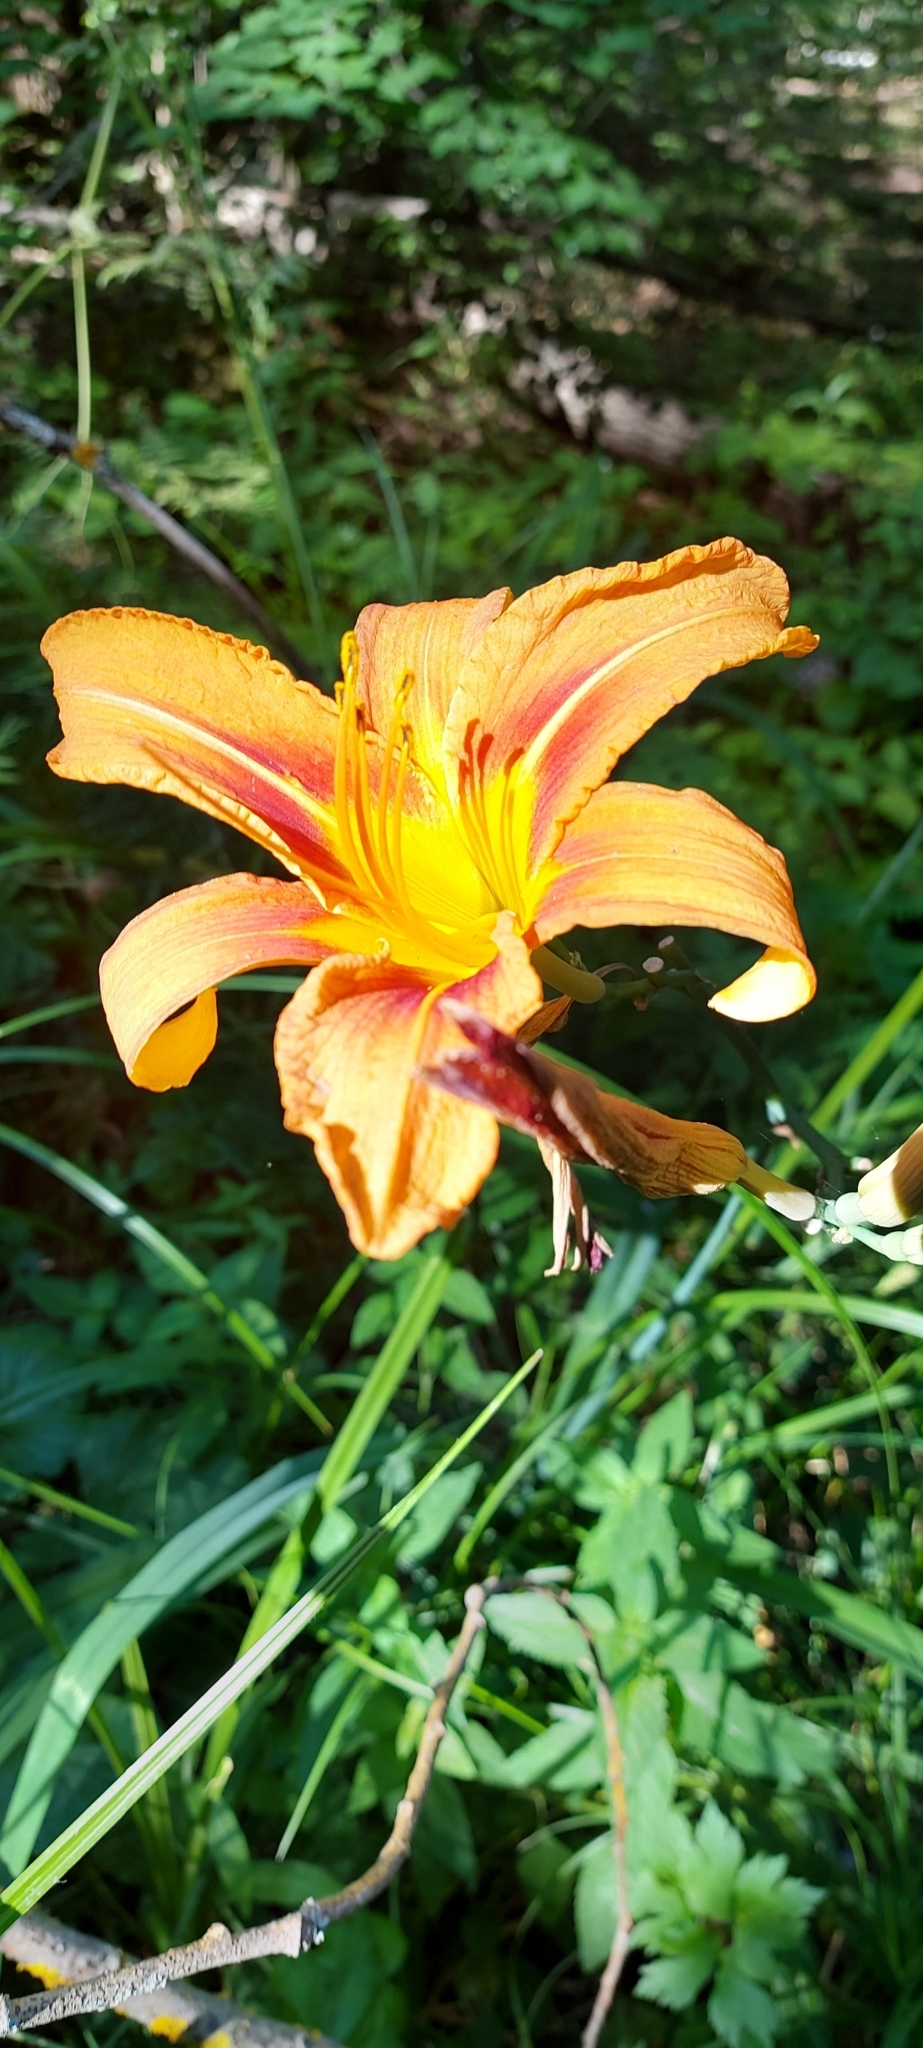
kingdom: Plantae
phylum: Tracheophyta
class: Liliopsida
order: Asparagales
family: Asphodelaceae
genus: Hemerocallis
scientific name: Hemerocallis fulva
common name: Orange day-lily
